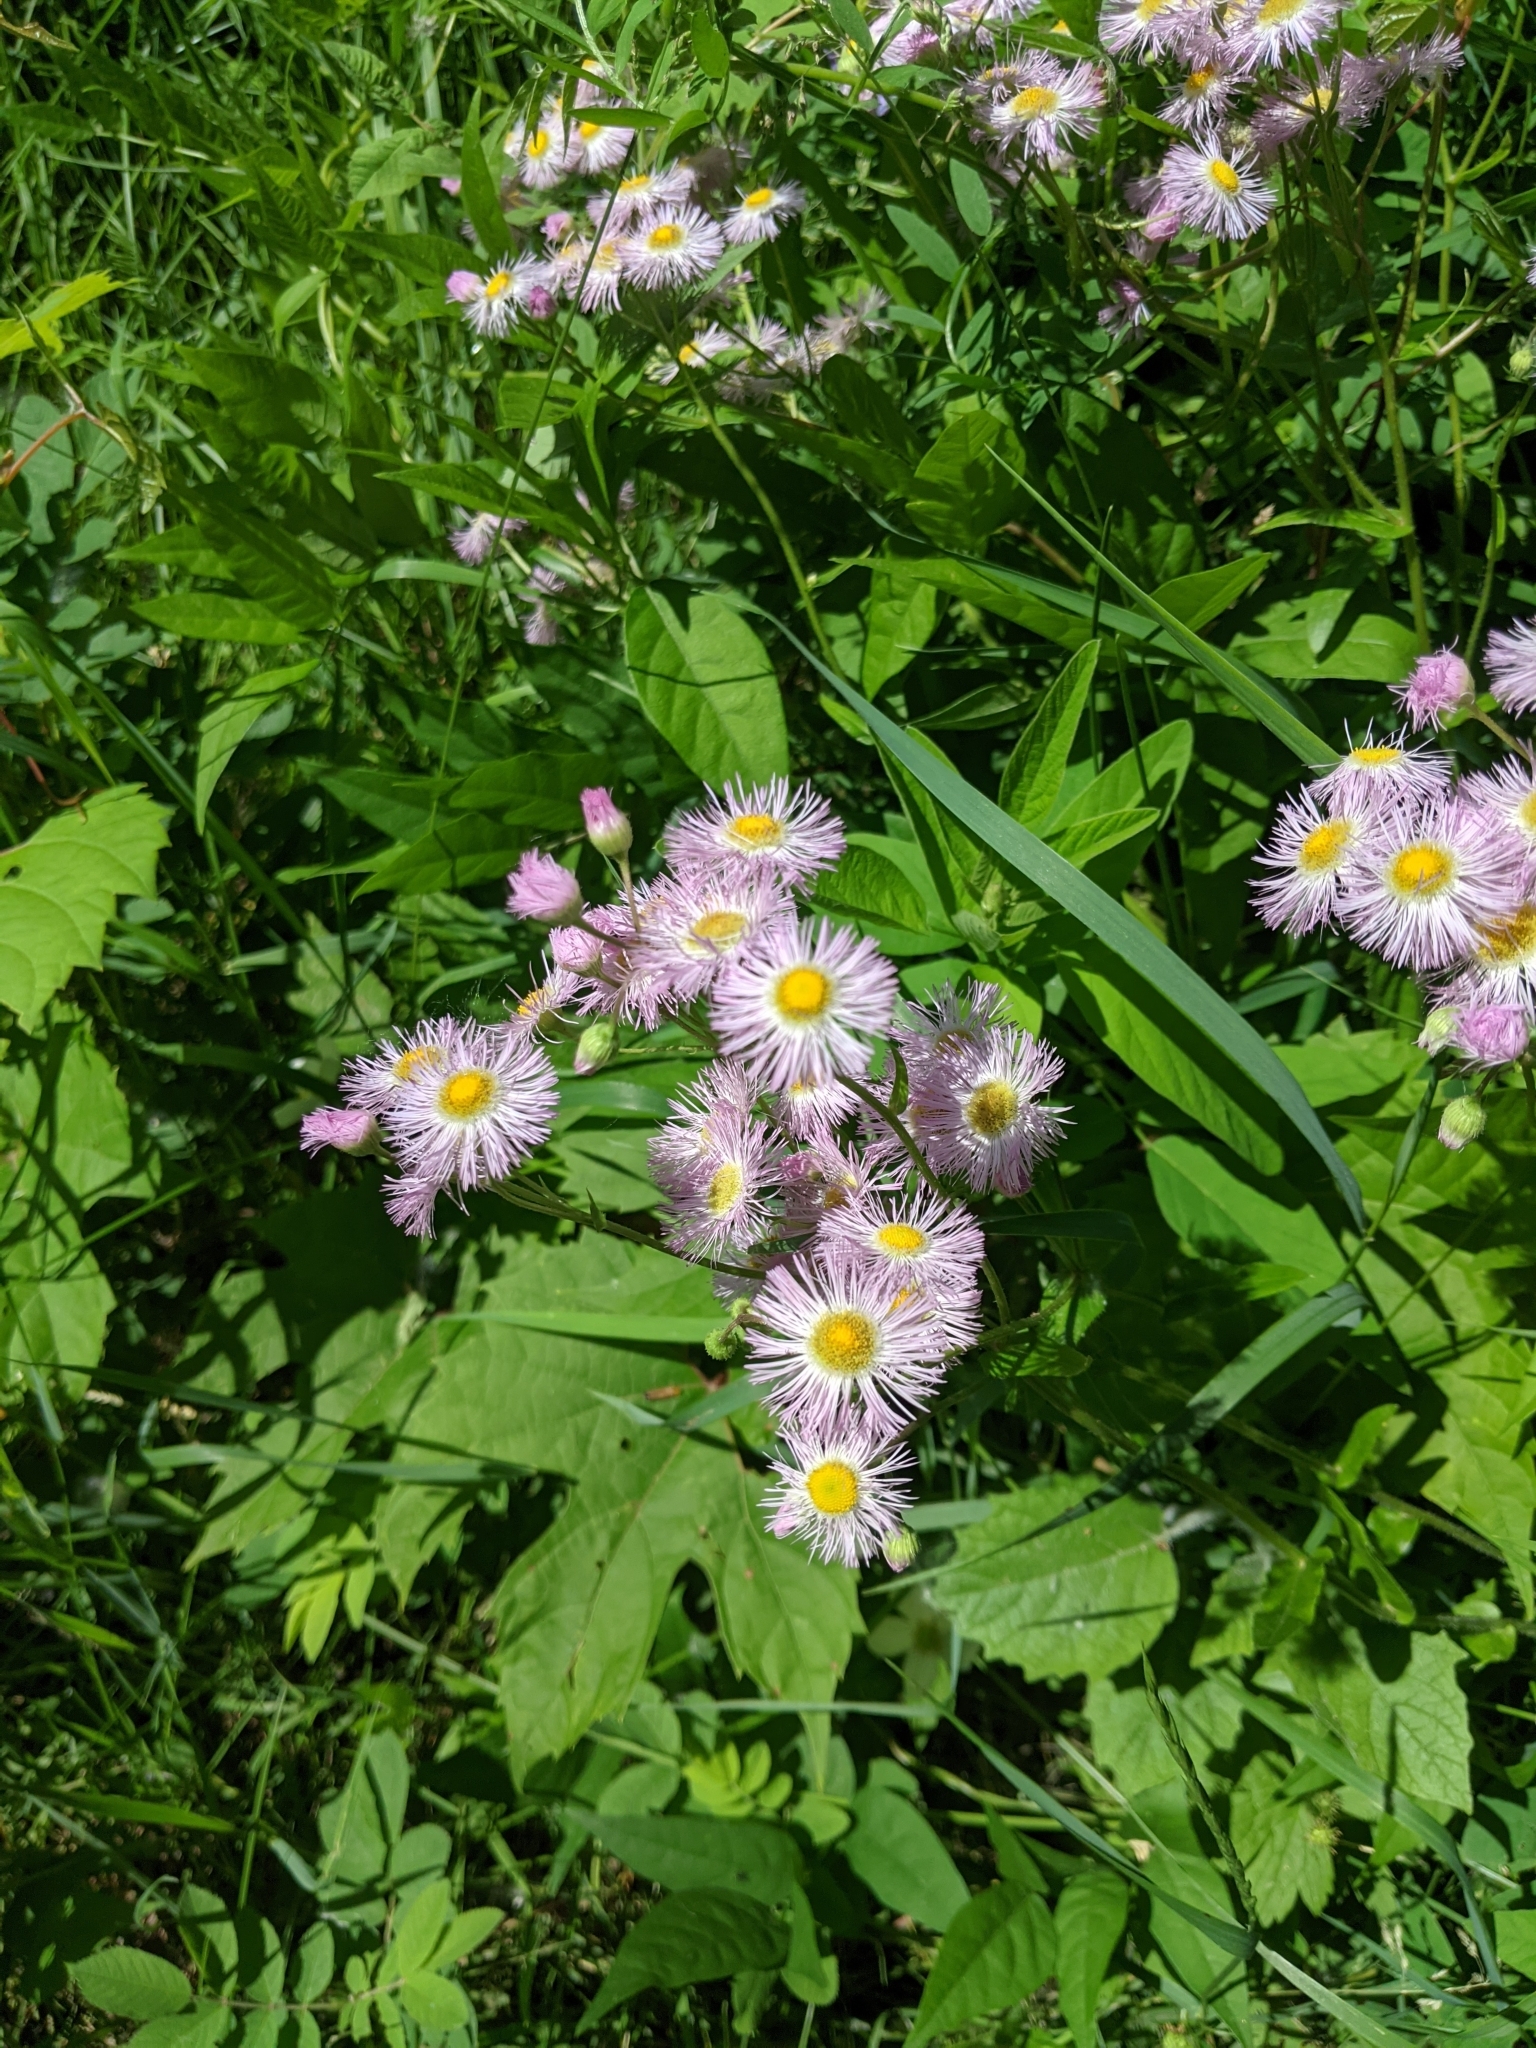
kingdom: Plantae
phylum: Tracheophyta
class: Magnoliopsida
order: Asterales
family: Asteraceae
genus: Erigeron
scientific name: Erigeron philadelphicus
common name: Robin's-plantain
